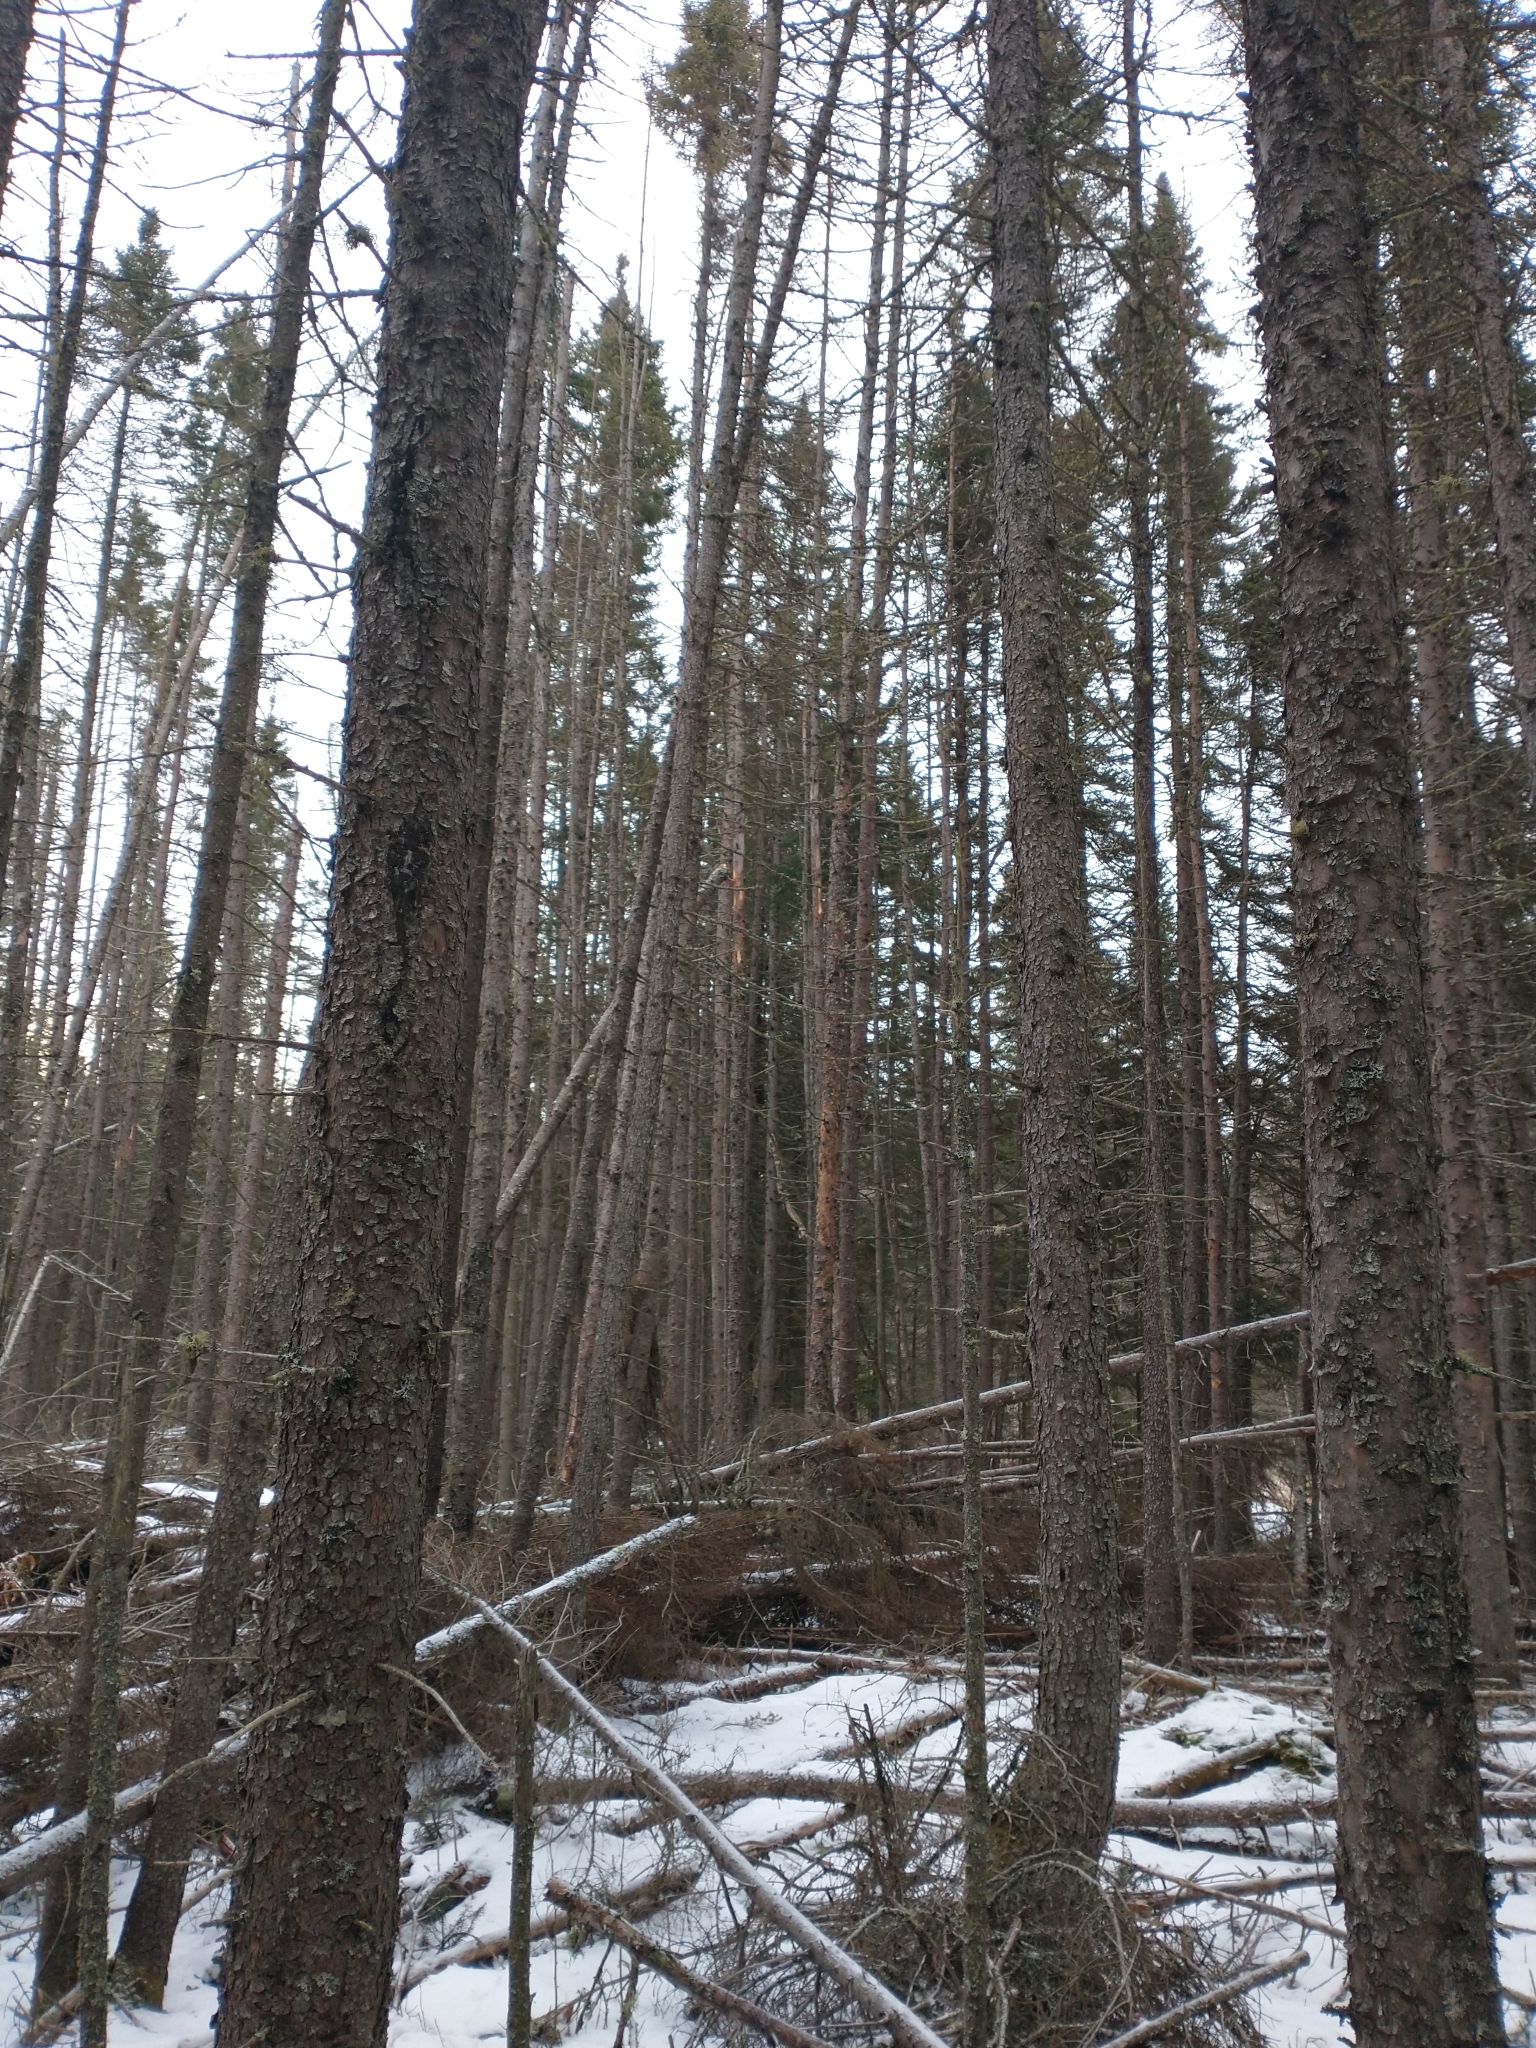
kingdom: Plantae
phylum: Tracheophyta
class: Pinopsida
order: Pinales
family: Pinaceae
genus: Picea
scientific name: Picea mariana
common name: Black spruce
